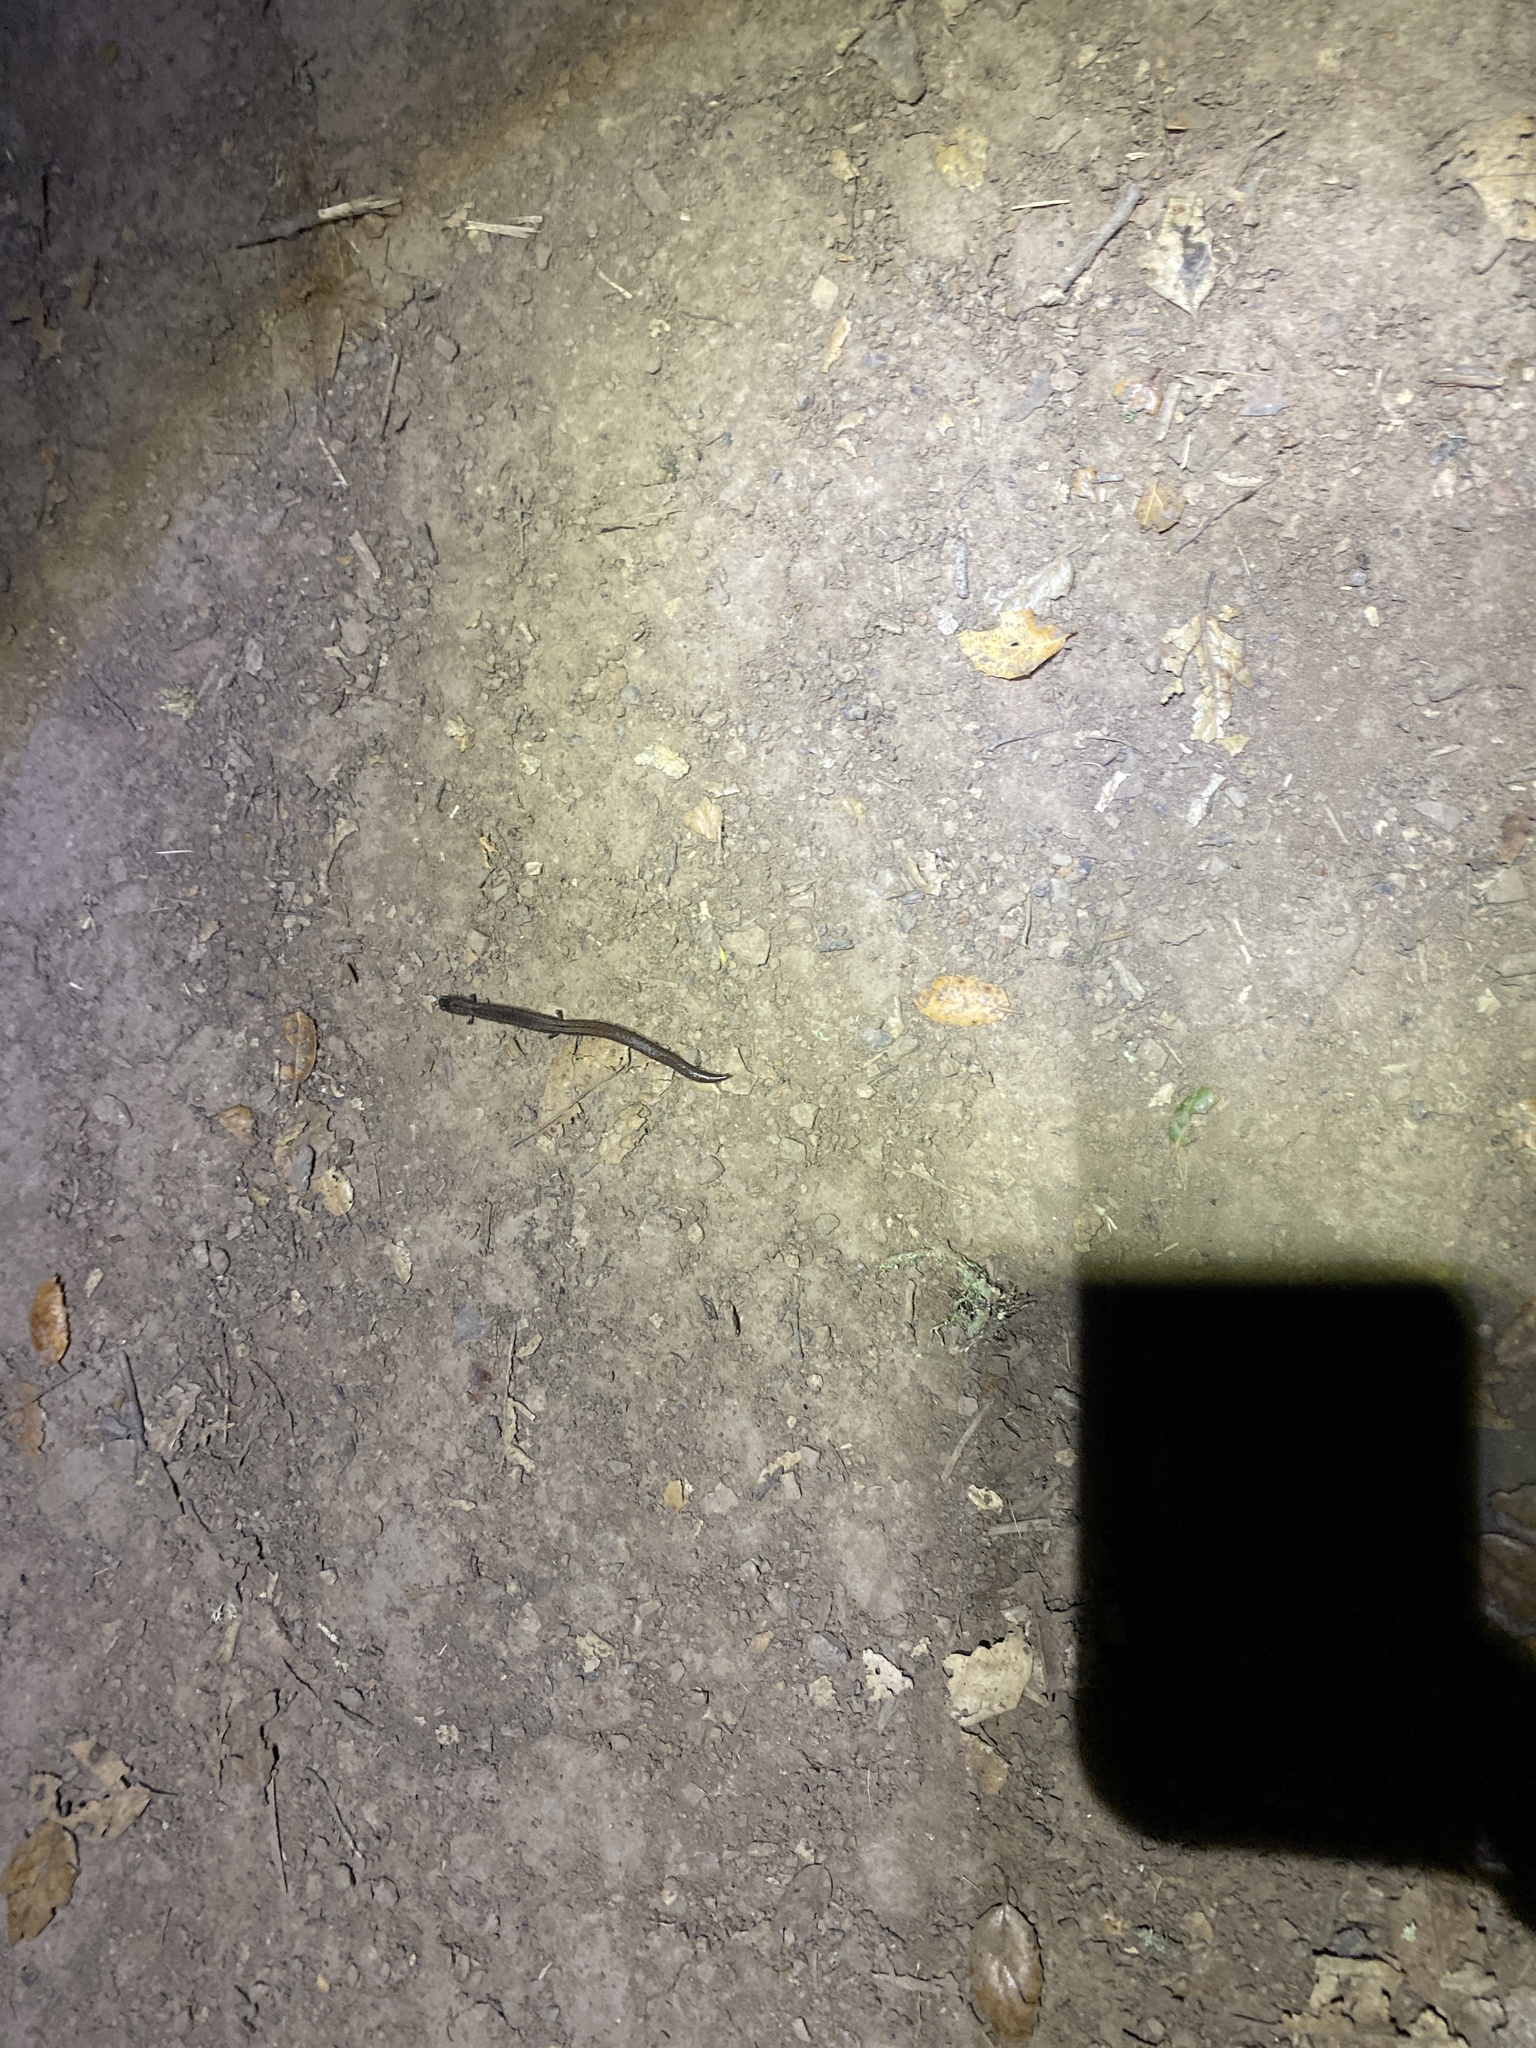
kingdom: Animalia
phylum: Chordata
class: Amphibia
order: Caudata
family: Plethodontidae
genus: Batrachoseps
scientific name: Batrachoseps attenuatus
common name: California slender salamander
